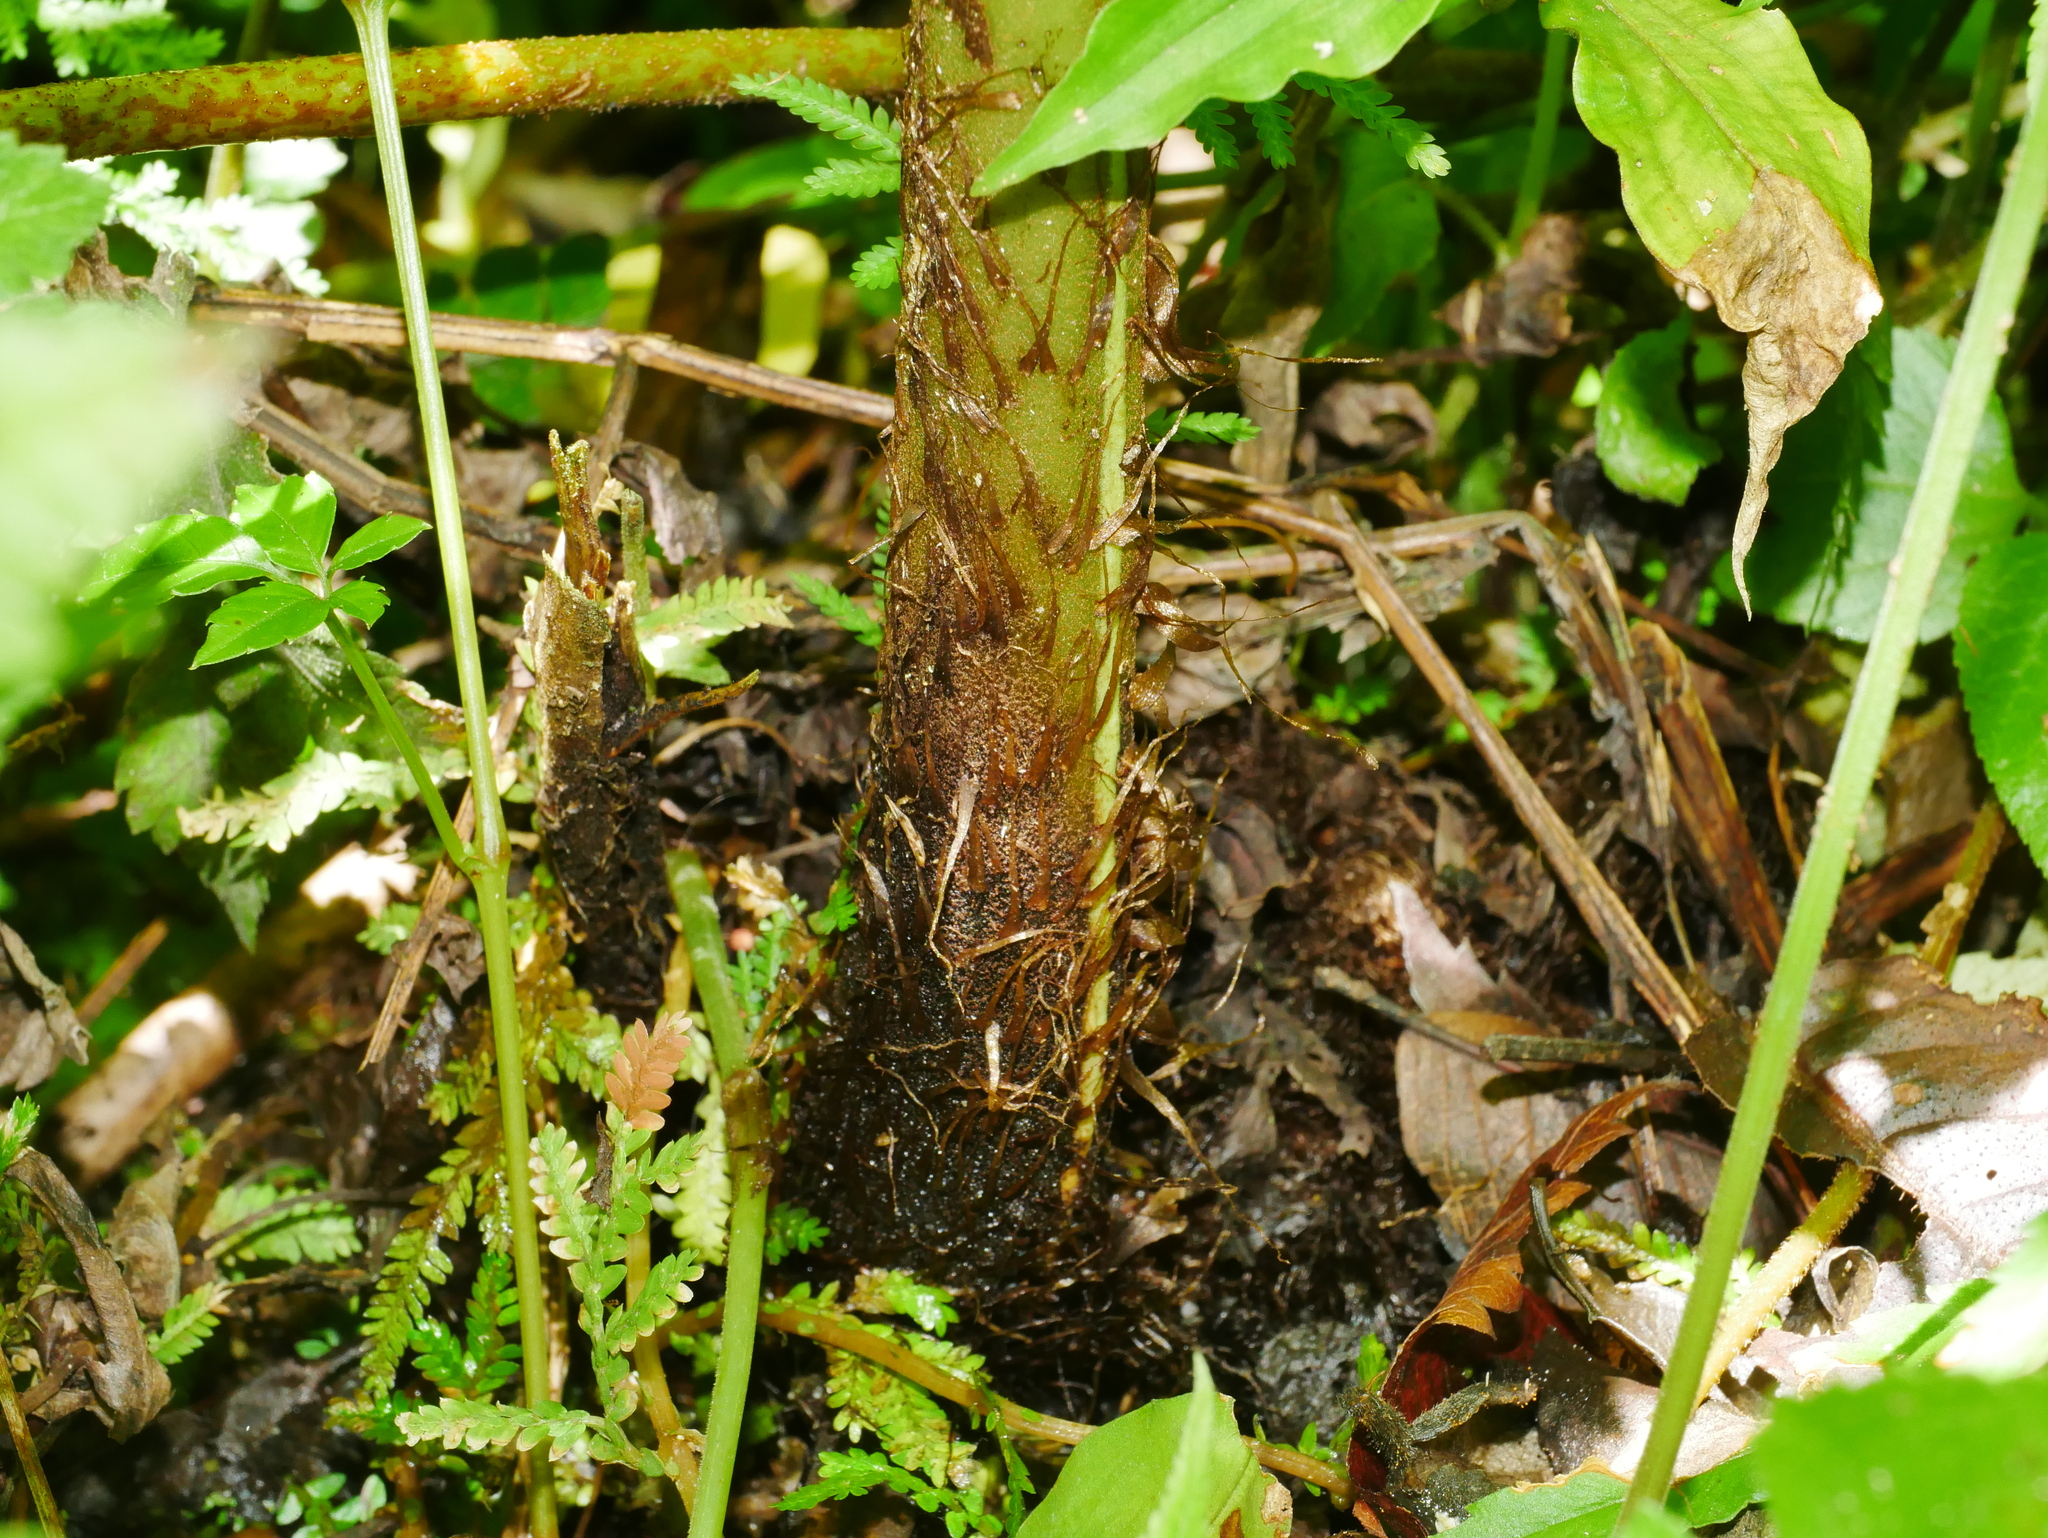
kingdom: Plantae
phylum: Tracheophyta
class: Polypodiopsida
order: Polypodiales
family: Athyriaceae
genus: Diplazium
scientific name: Diplazium maximum
